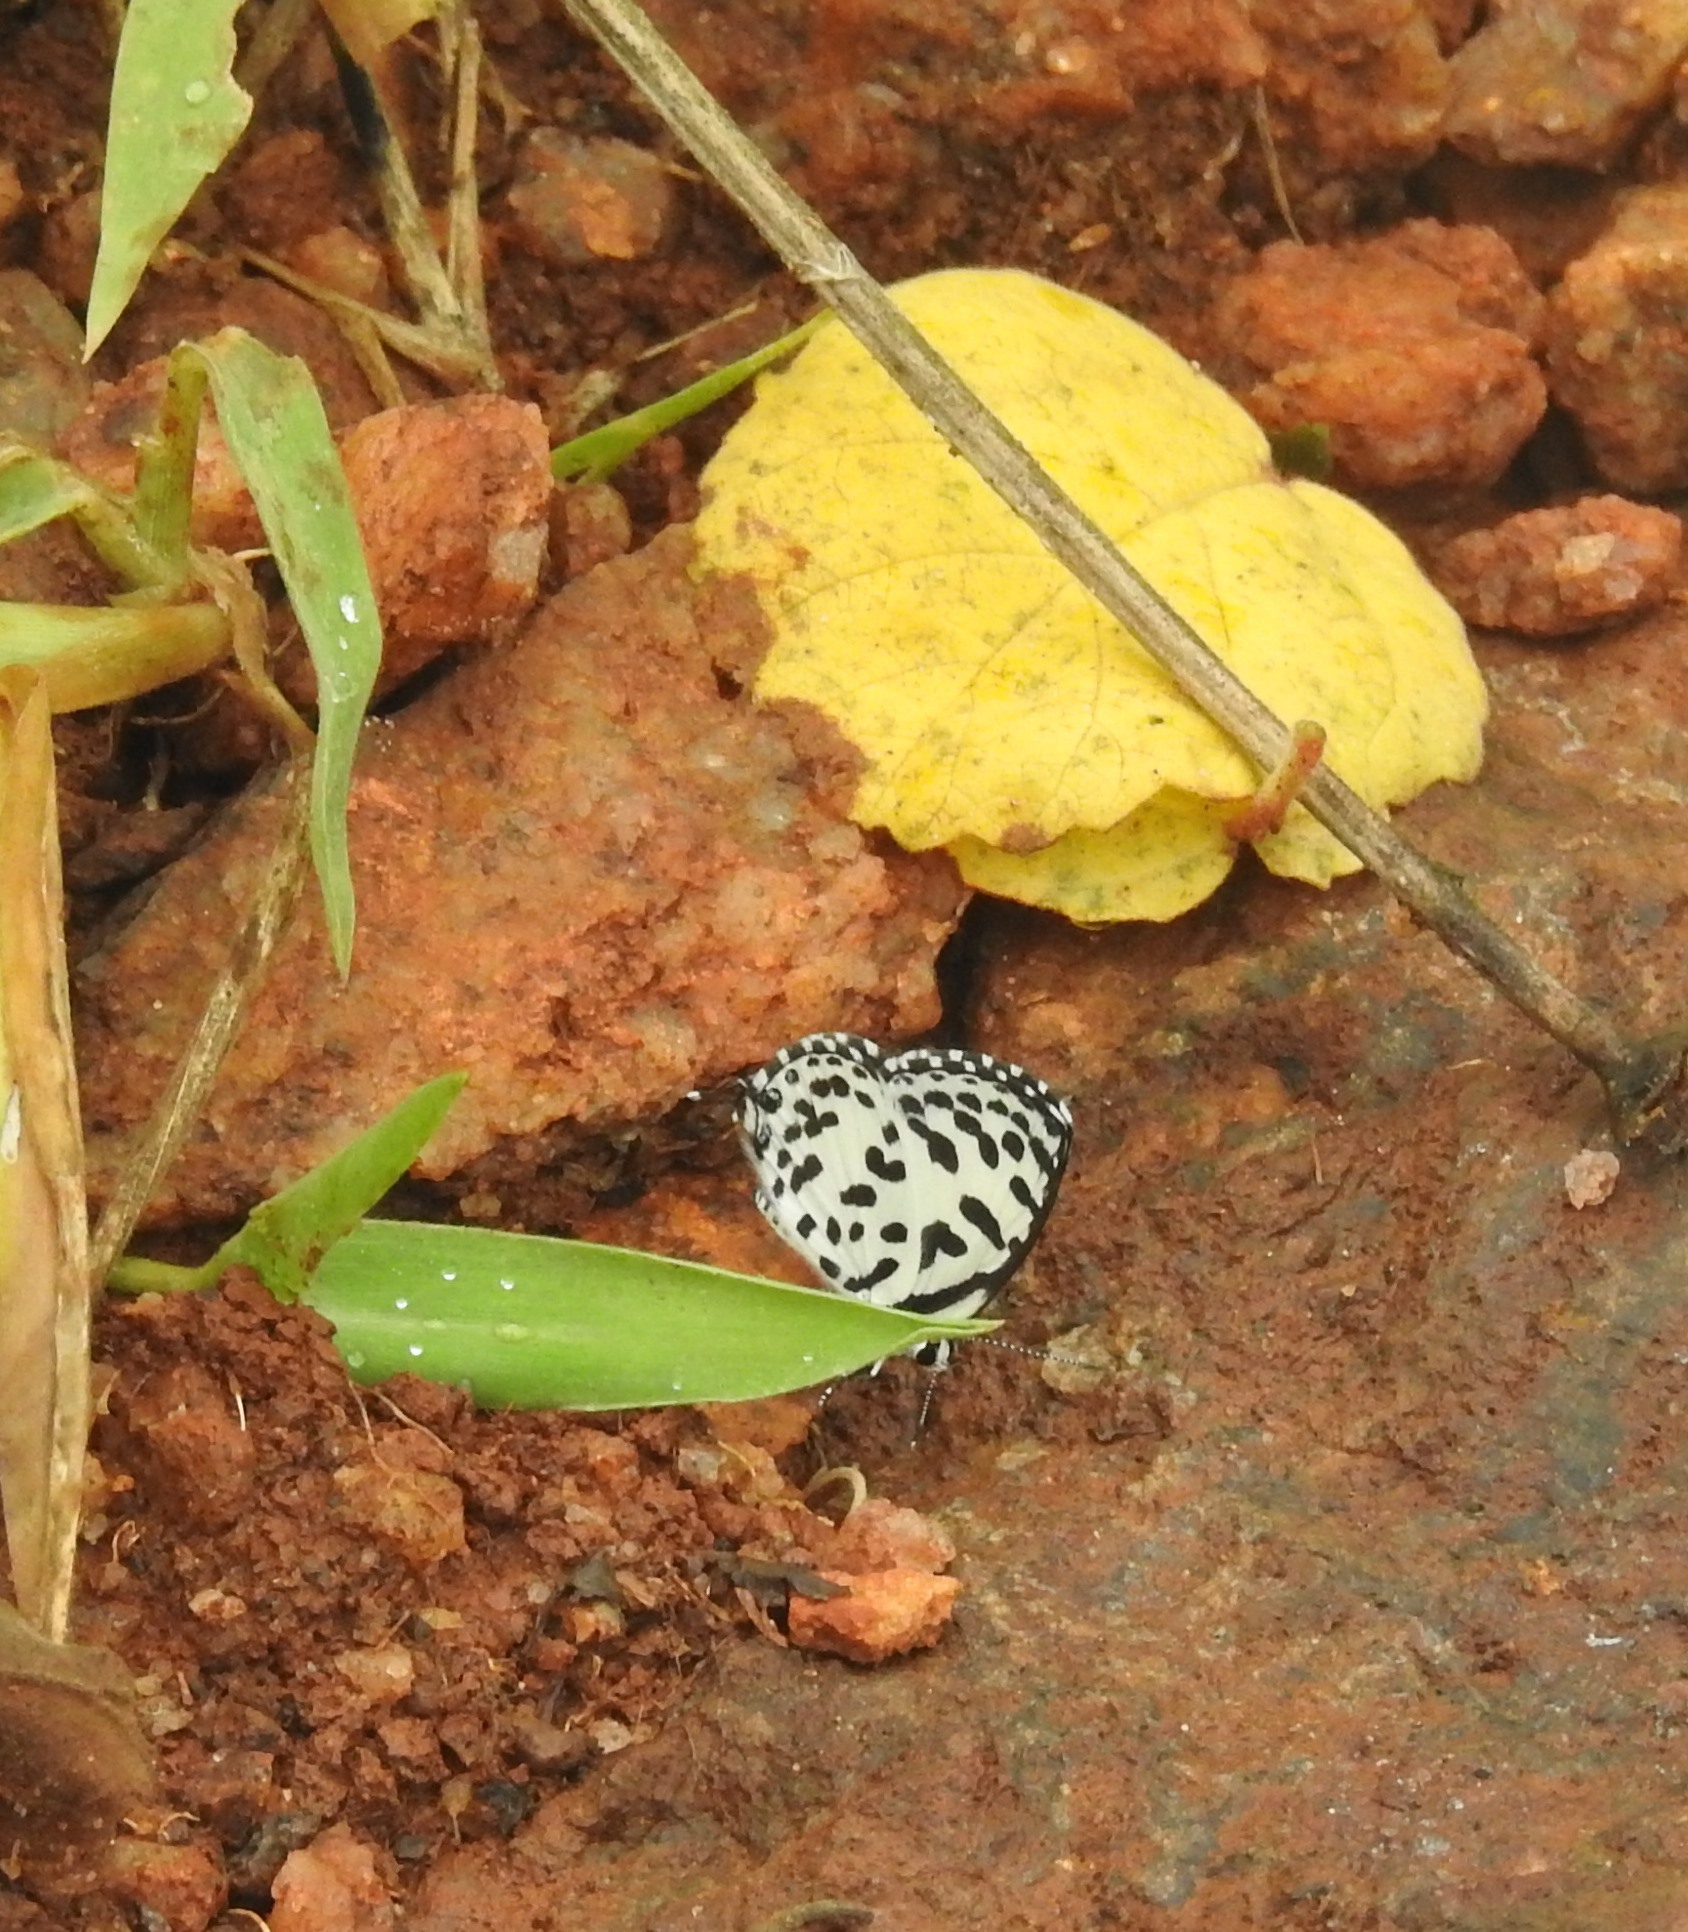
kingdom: Animalia
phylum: Arthropoda
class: Insecta
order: Lepidoptera
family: Lycaenidae
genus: Castalius
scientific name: Castalius rosimon
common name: Common pierrot
